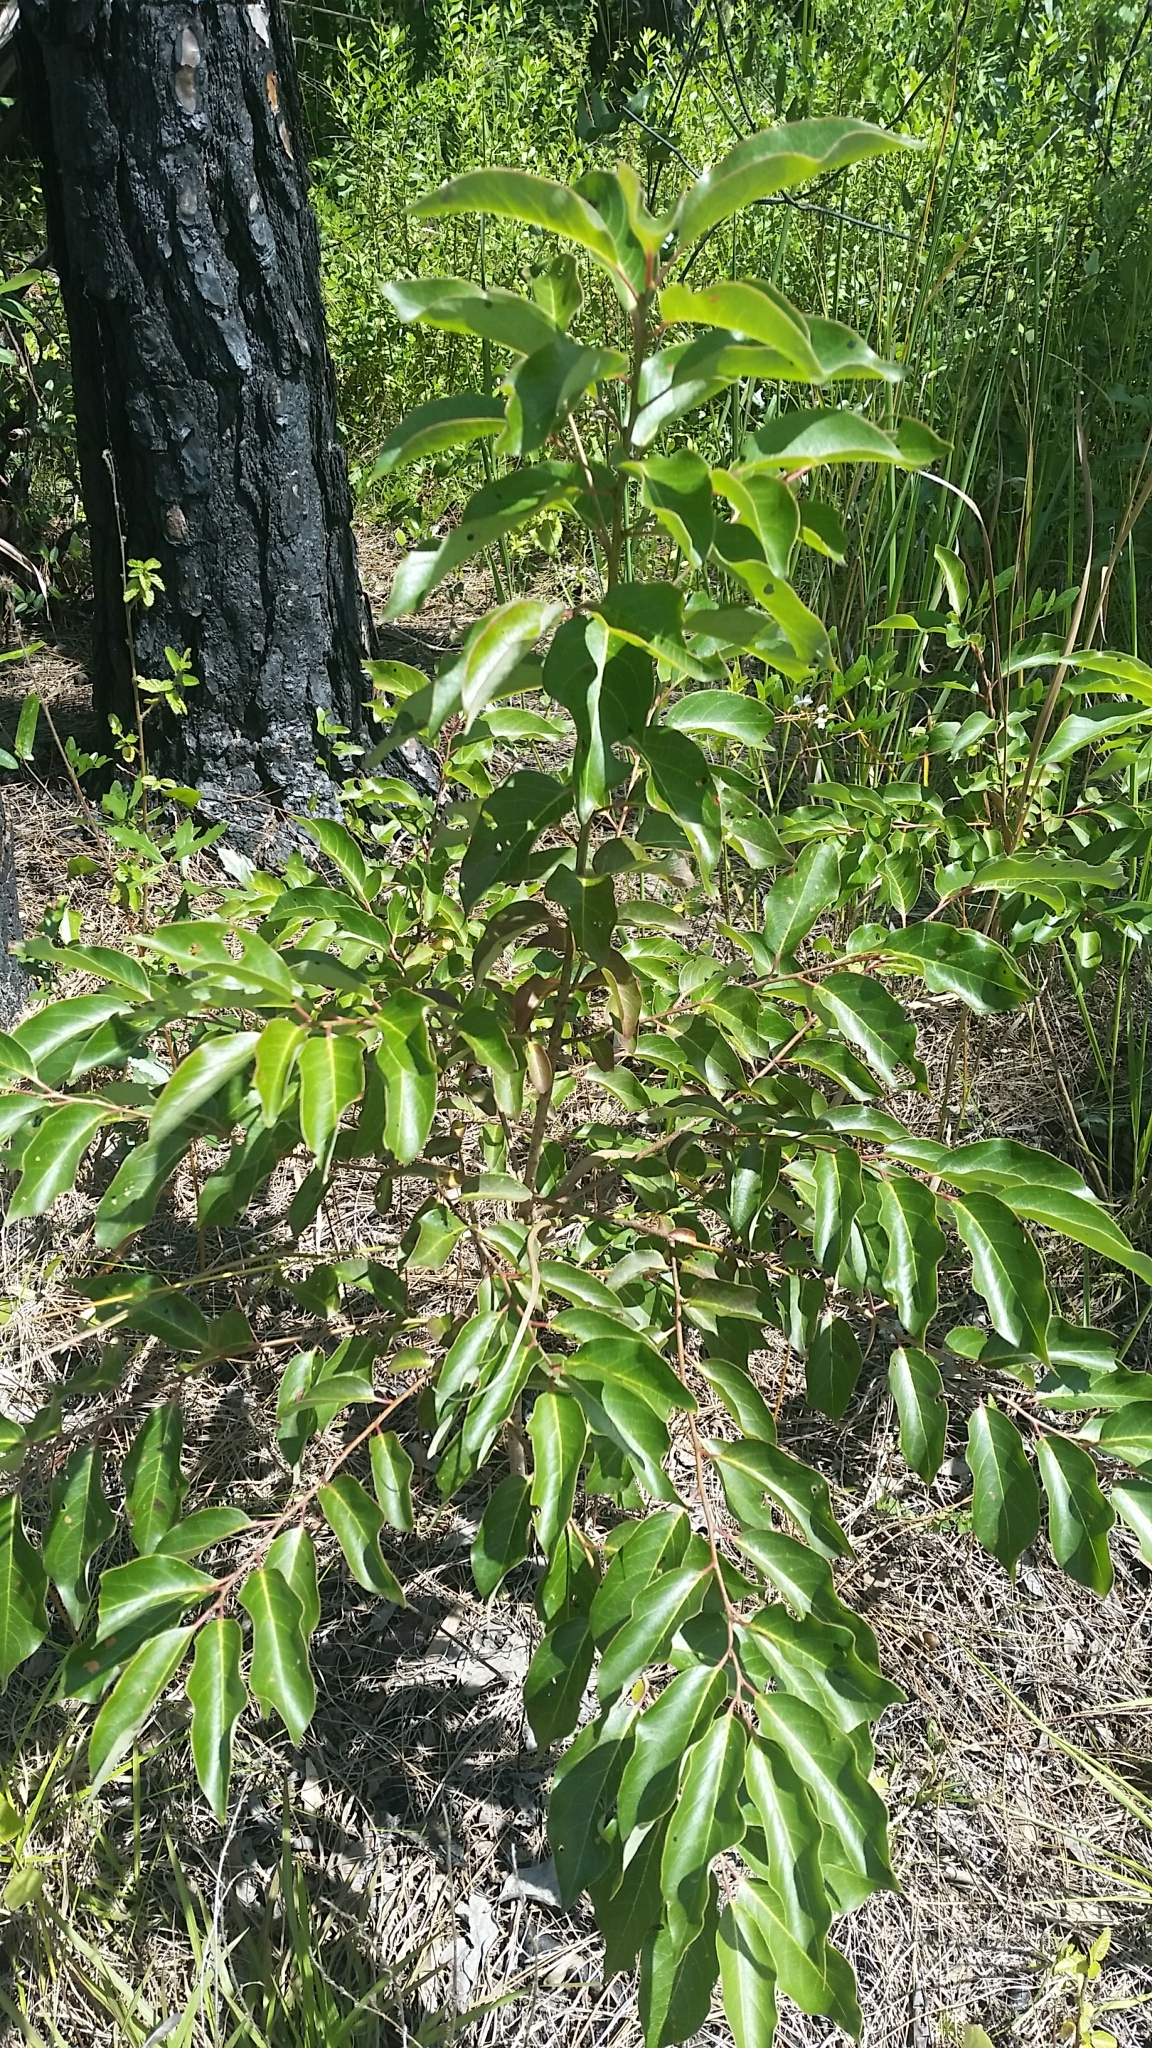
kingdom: Plantae
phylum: Tracheophyta
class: Magnoliopsida
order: Ericales
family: Ebenaceae
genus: Diospyros
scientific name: Diospyros virginiana
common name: Persimmon
